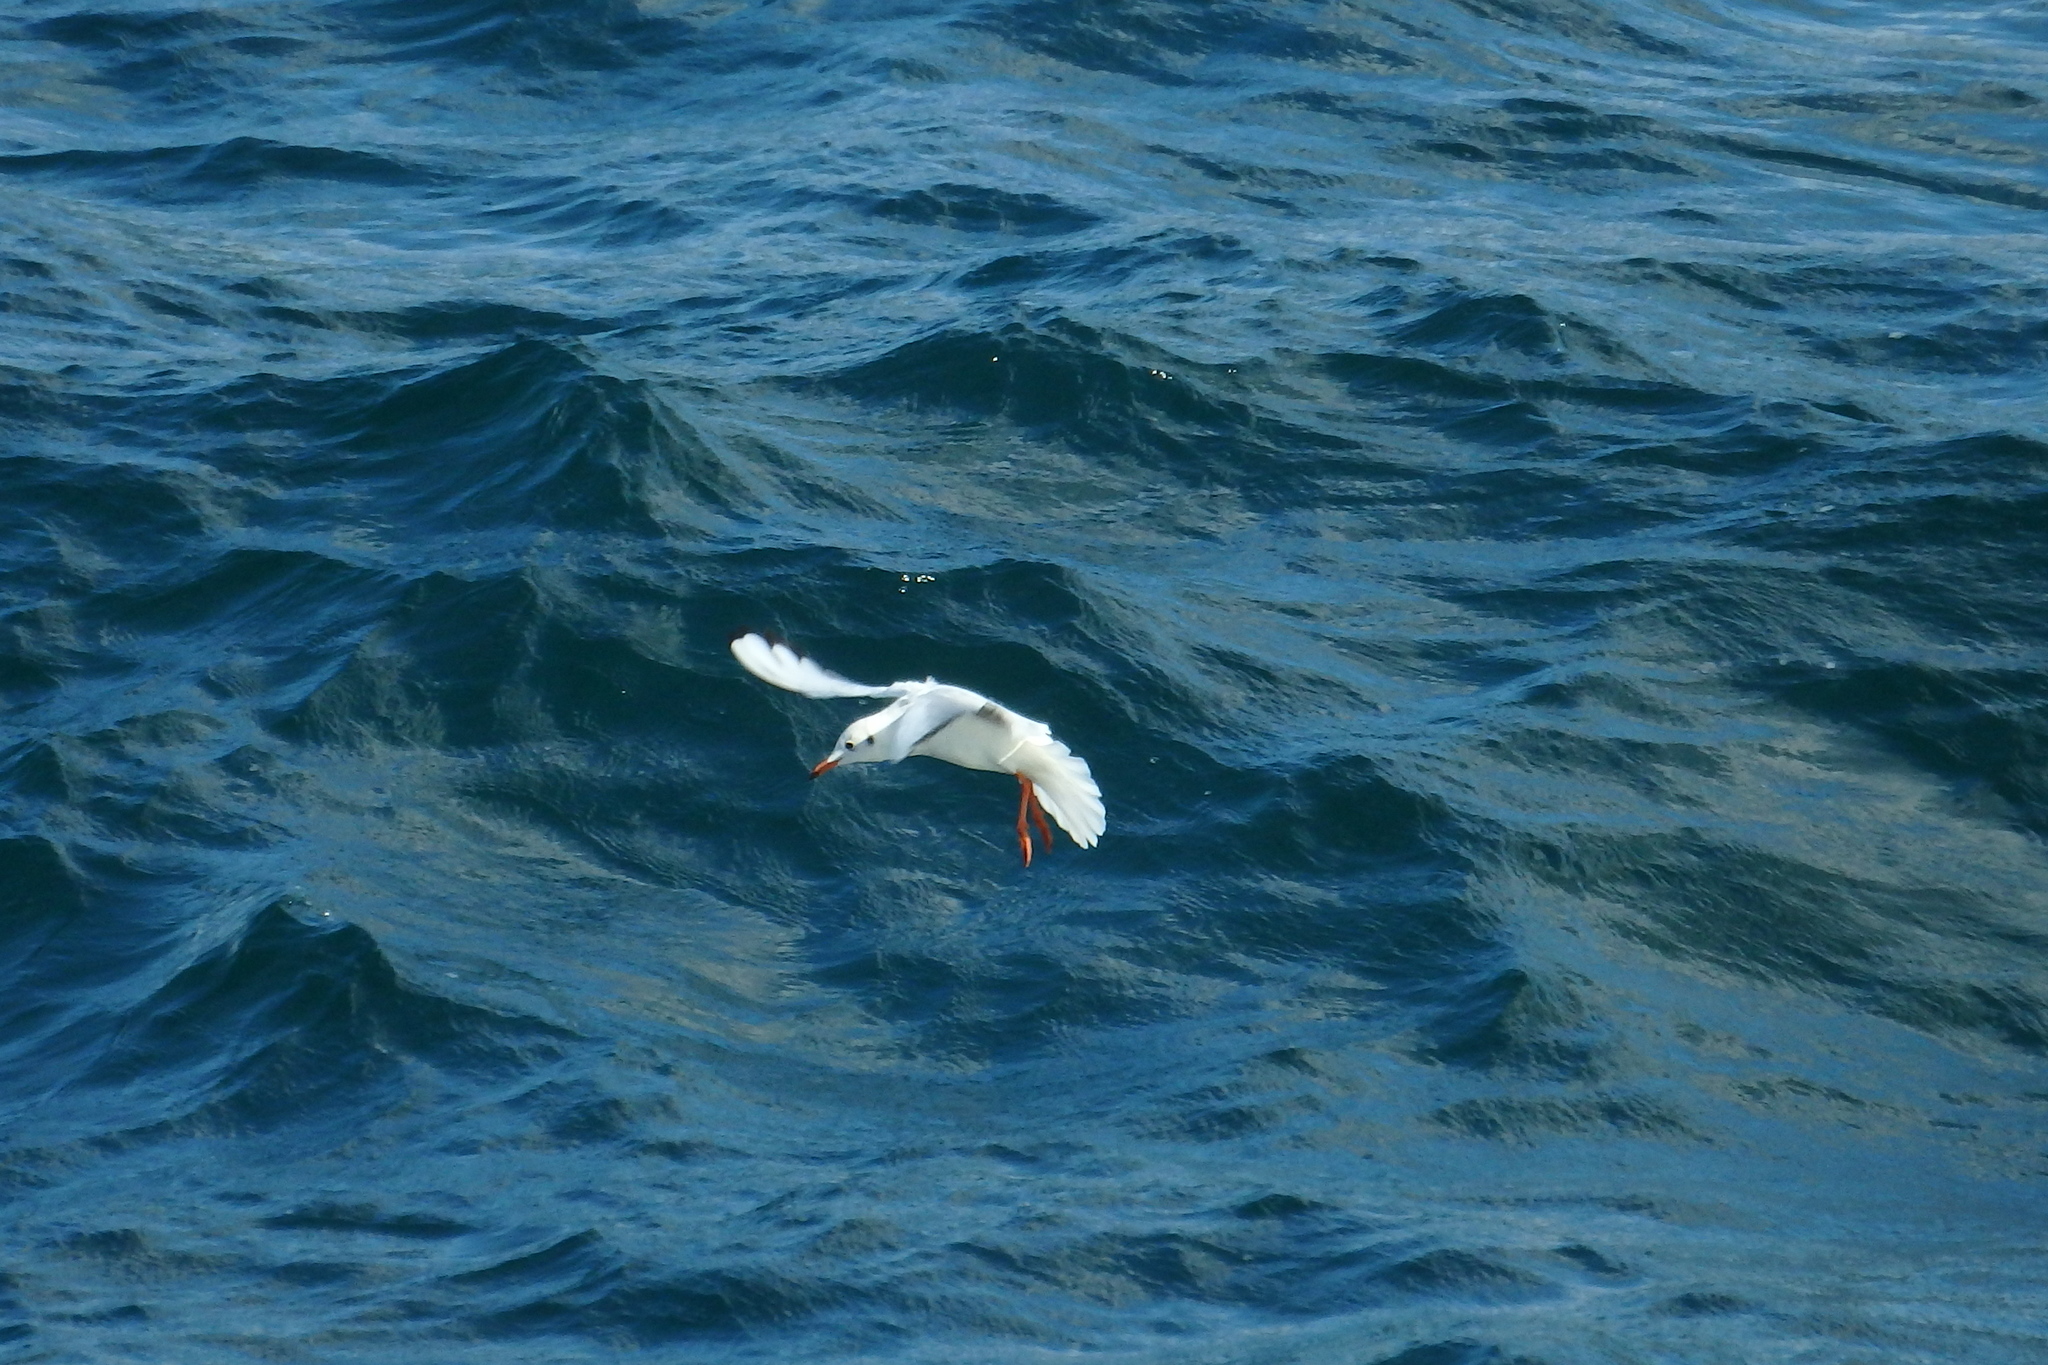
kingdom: Animalia
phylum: Chordata
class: Aves
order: Charadriiformes
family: Laridae
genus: Chroicocephalus
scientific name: Chroicocephalus ridibundus
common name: Black-headed gull
